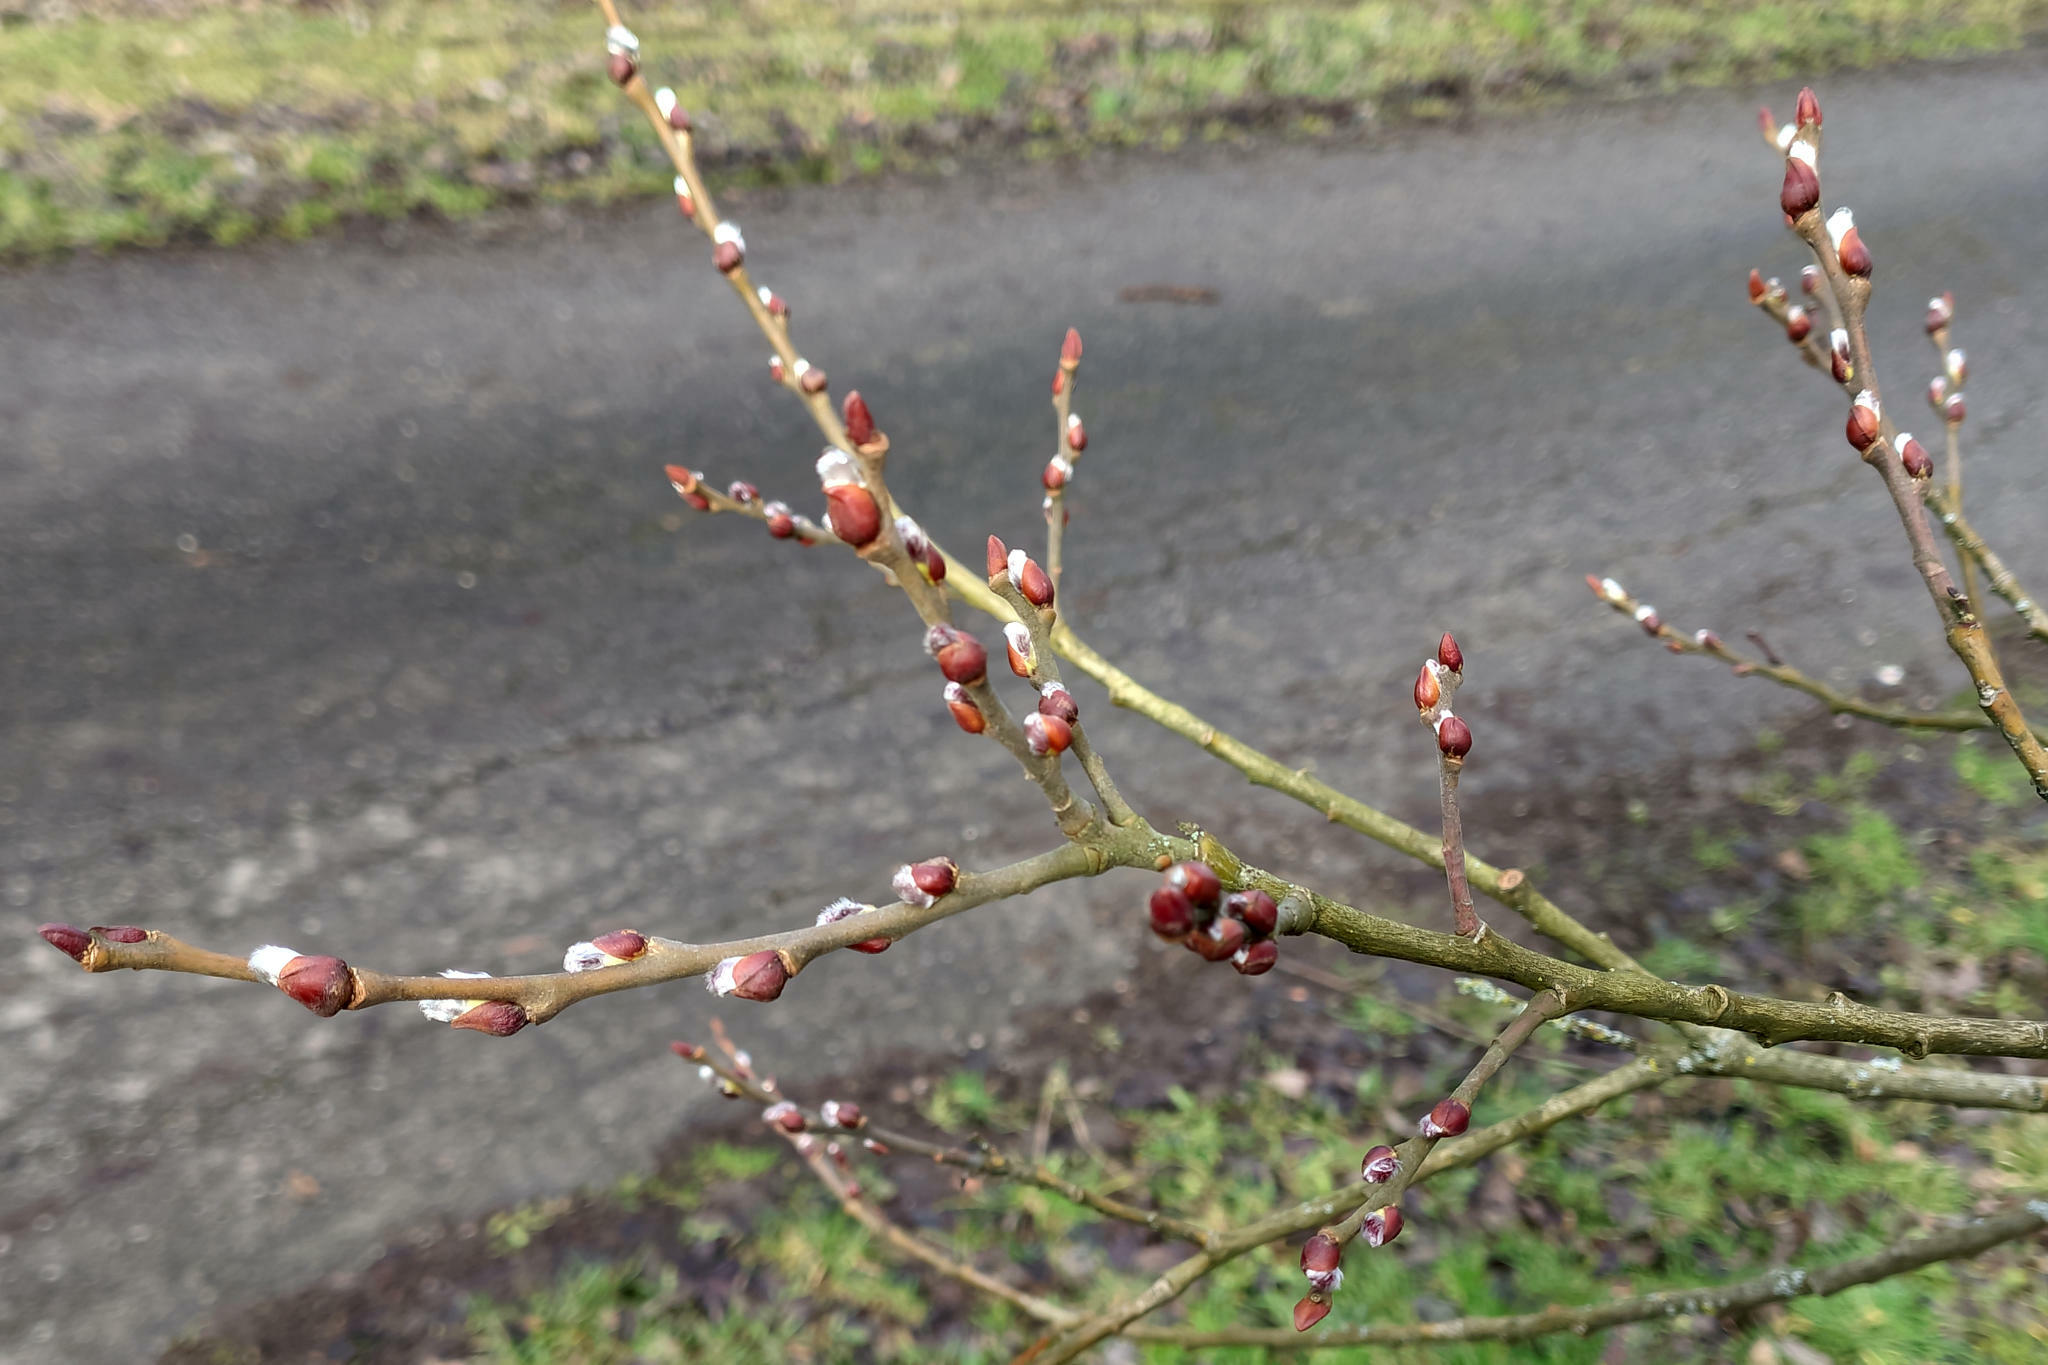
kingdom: Plantae
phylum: Tracheophyta
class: Magnoliopsida
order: Malpighiales
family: Salicaceae
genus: Salix
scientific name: Salix caprea
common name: Goat willow
